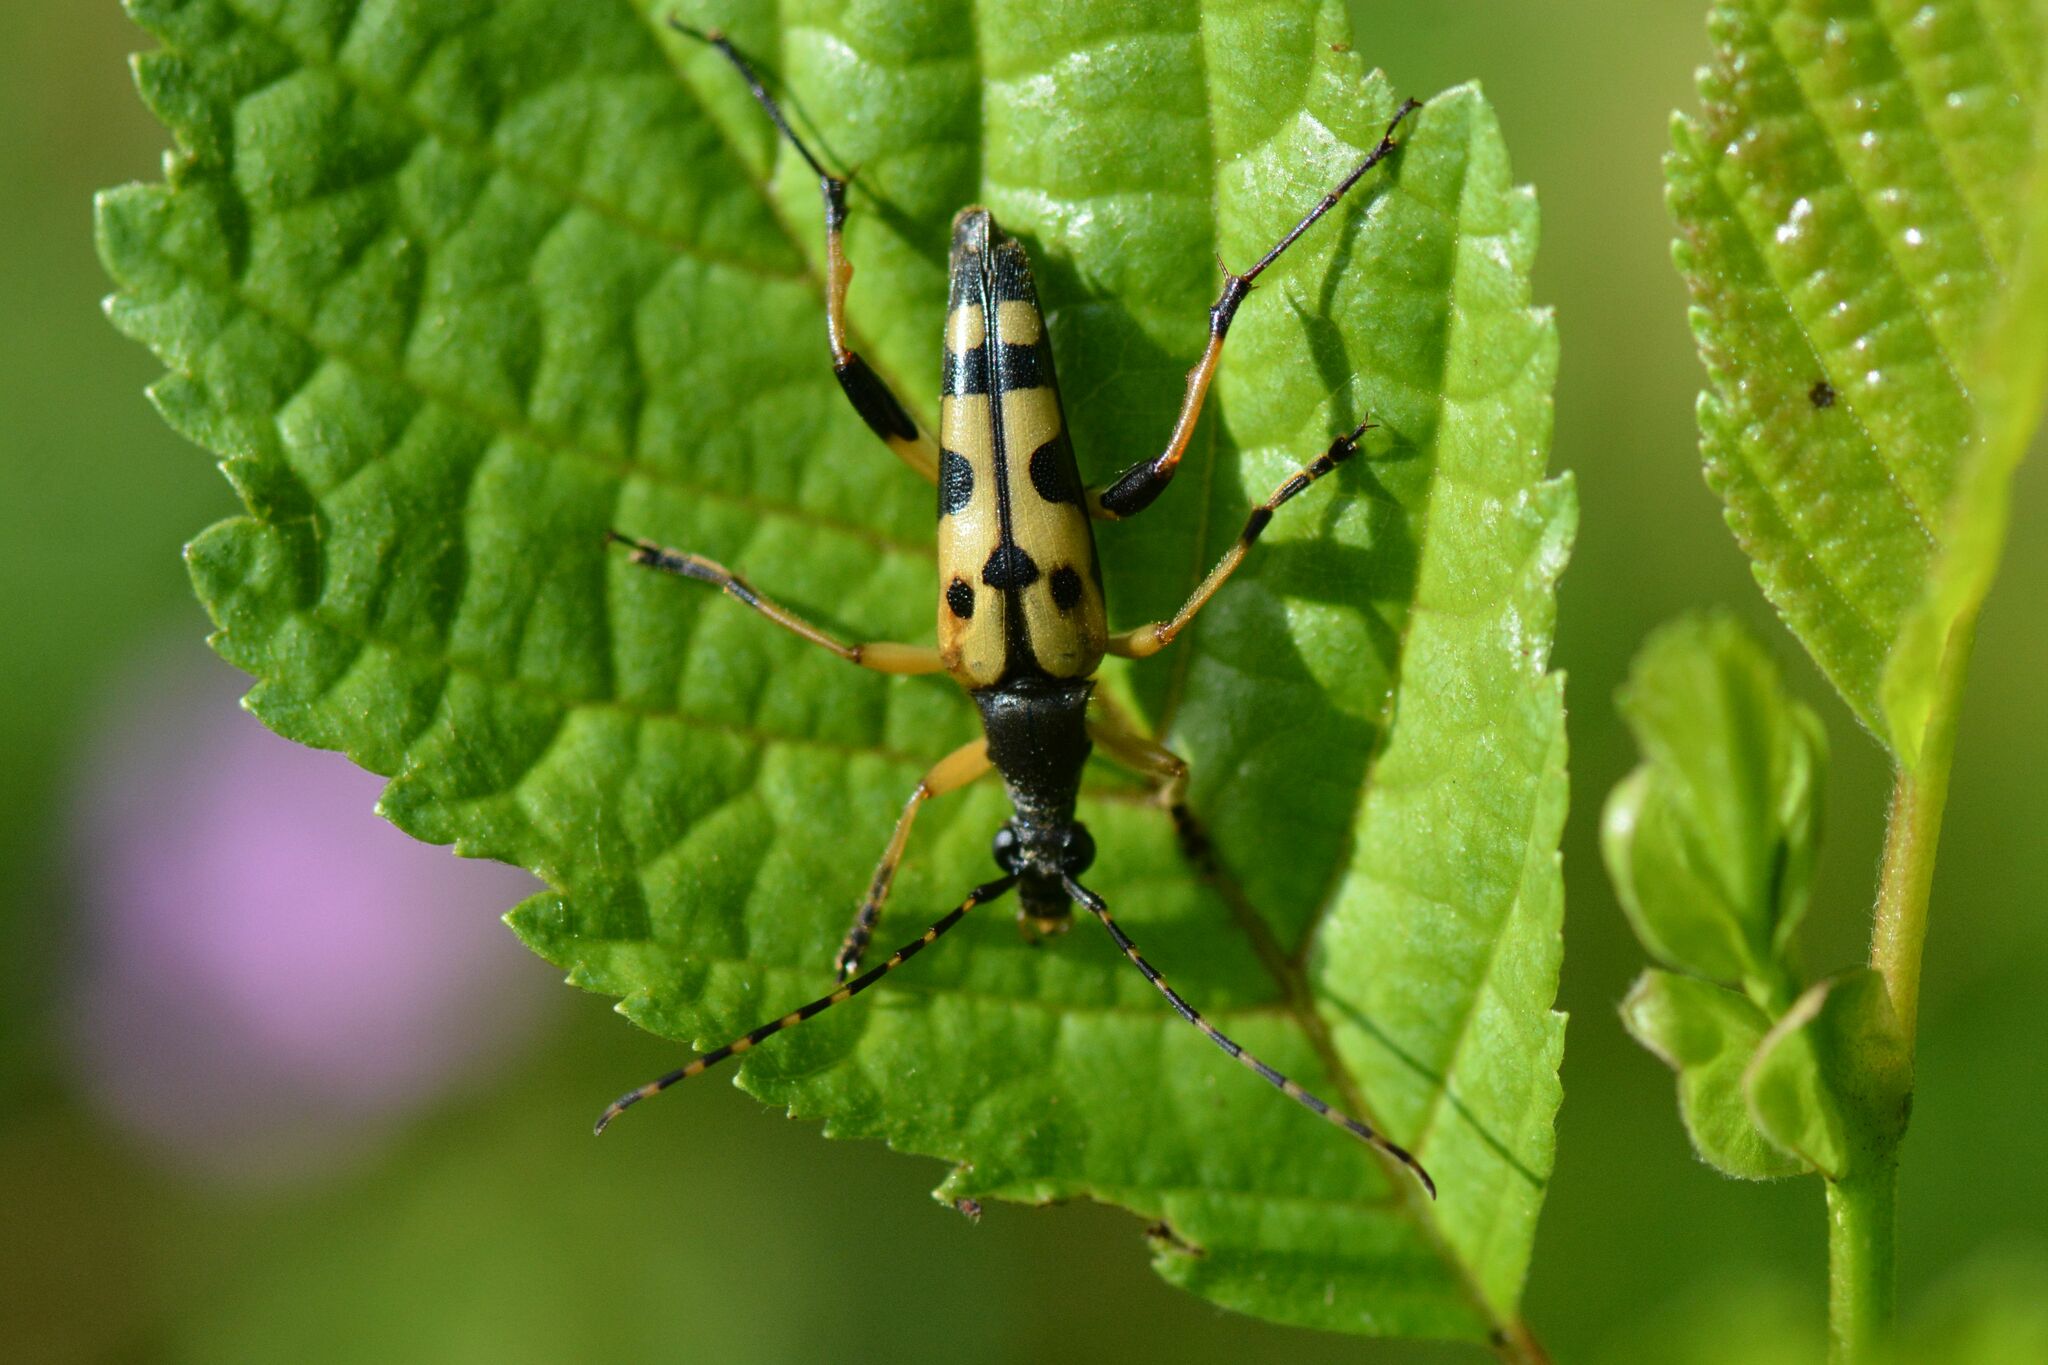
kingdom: Animalia
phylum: Arthropoda
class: Insecta
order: Coleoptera
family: Cerambycidae
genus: Rutpela
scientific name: Rutpela maculata
